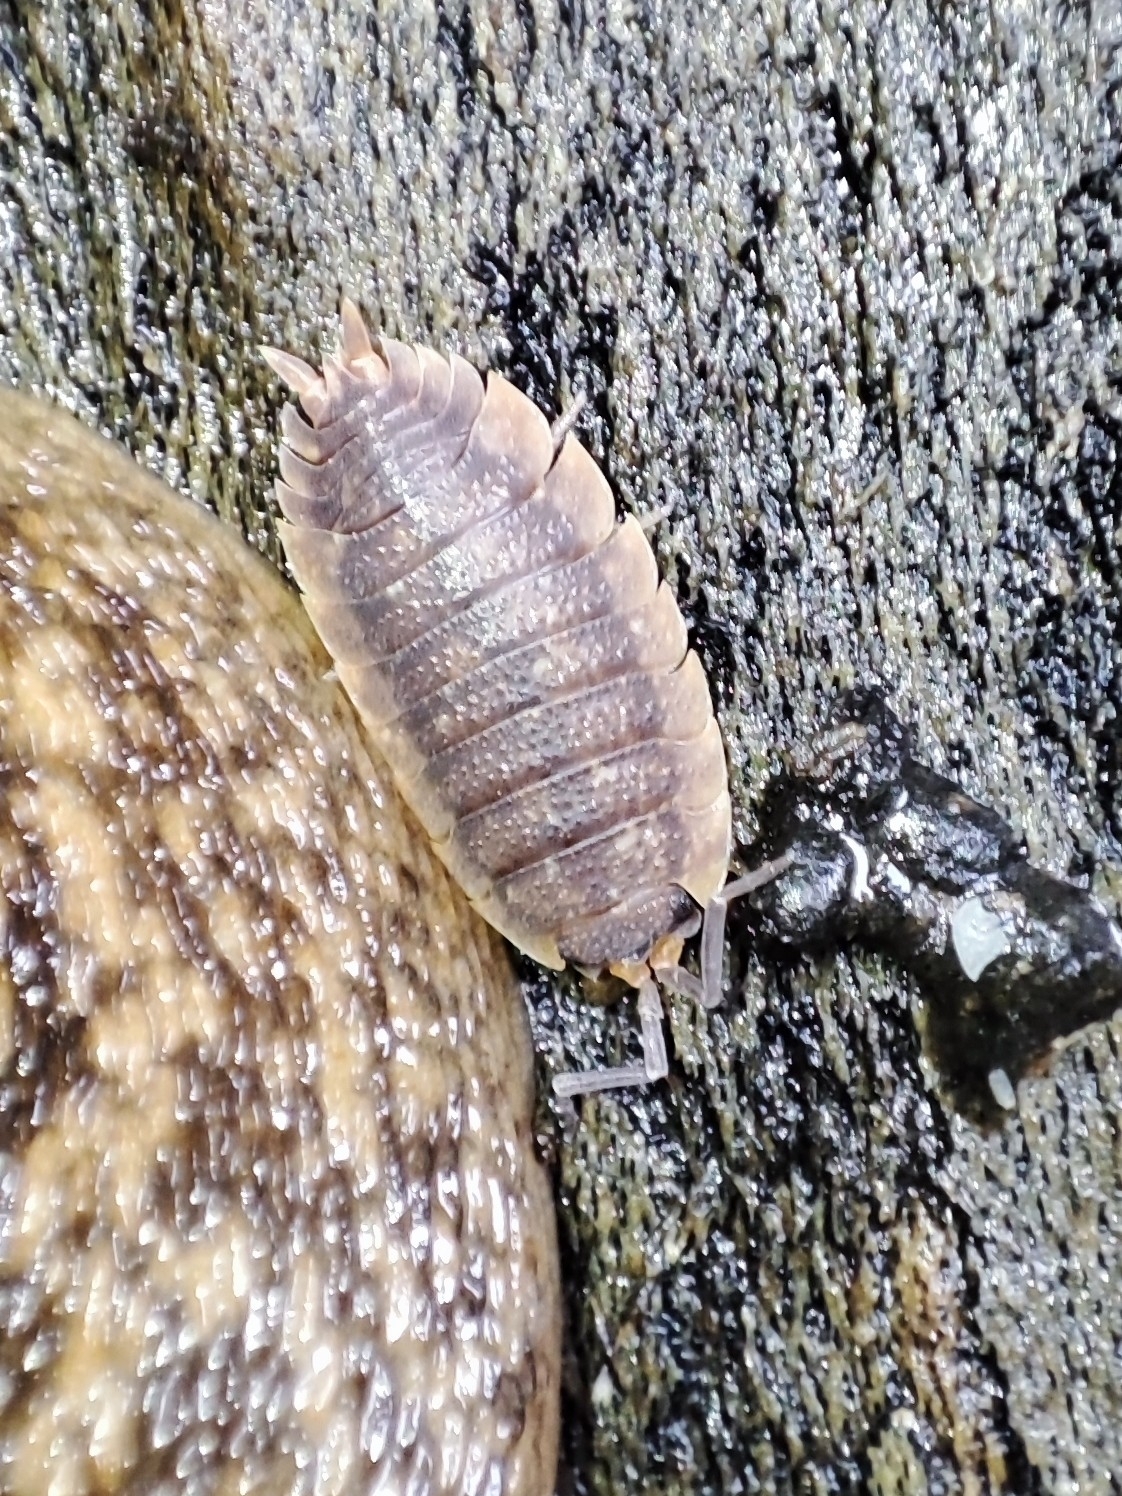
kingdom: Animalia
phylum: Arthropoda
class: Malacostraca
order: Isopoda
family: Porcellionidae
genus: Porcellio
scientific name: Porcellio scaber
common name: Common rough woodlouse
